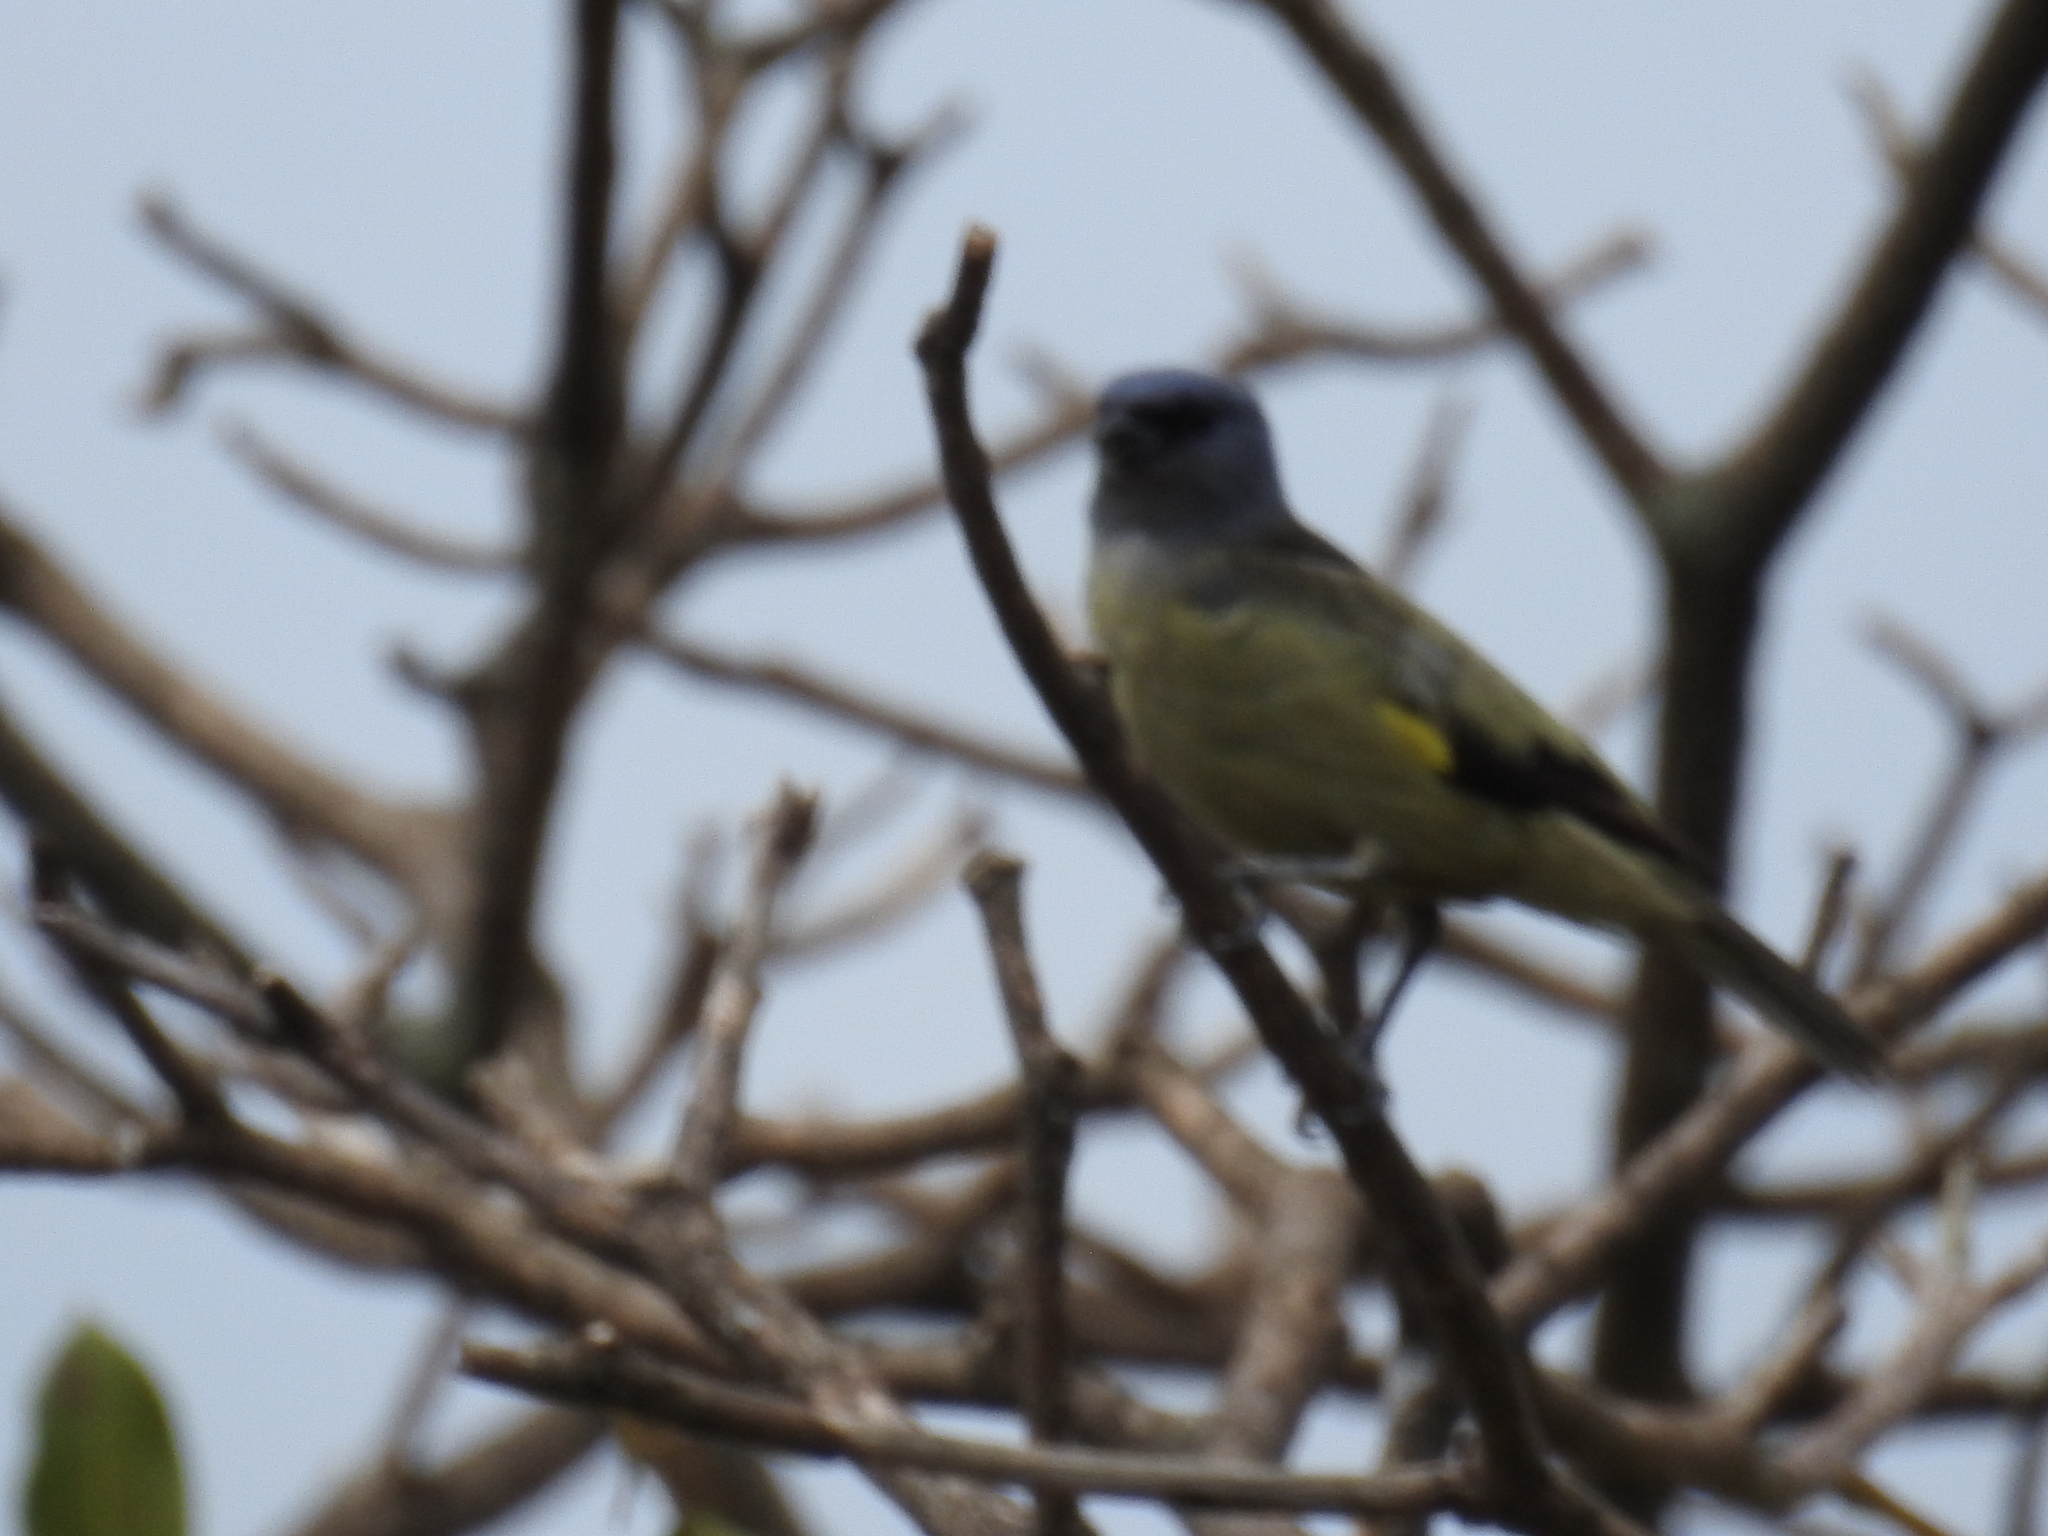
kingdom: Animalia
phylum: Chordata
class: Aves
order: Passeriformes
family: Thraupidae
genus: Thraupis
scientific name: Thraupis abbas
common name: Yellow-winged tanager
